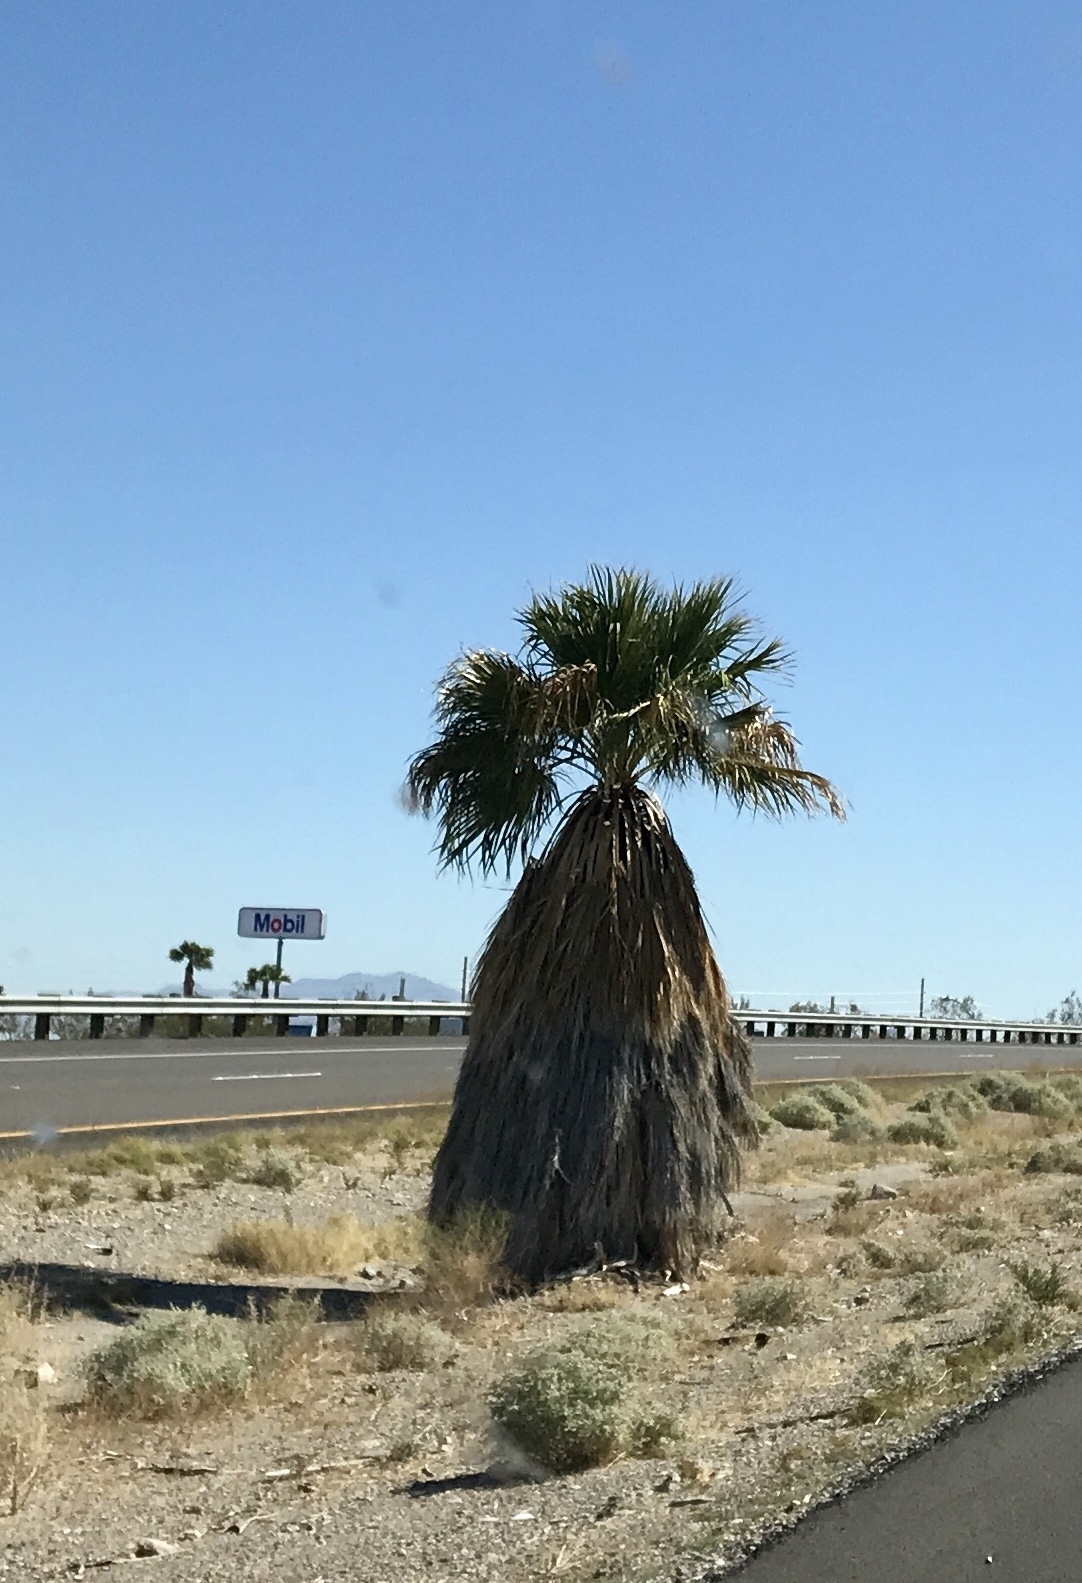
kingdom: Plantae
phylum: Tracheophyta
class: Liliopsida
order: Arecales
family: Arecaceae
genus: Washingtonia
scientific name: Washingtonia filifera
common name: California fan palm
